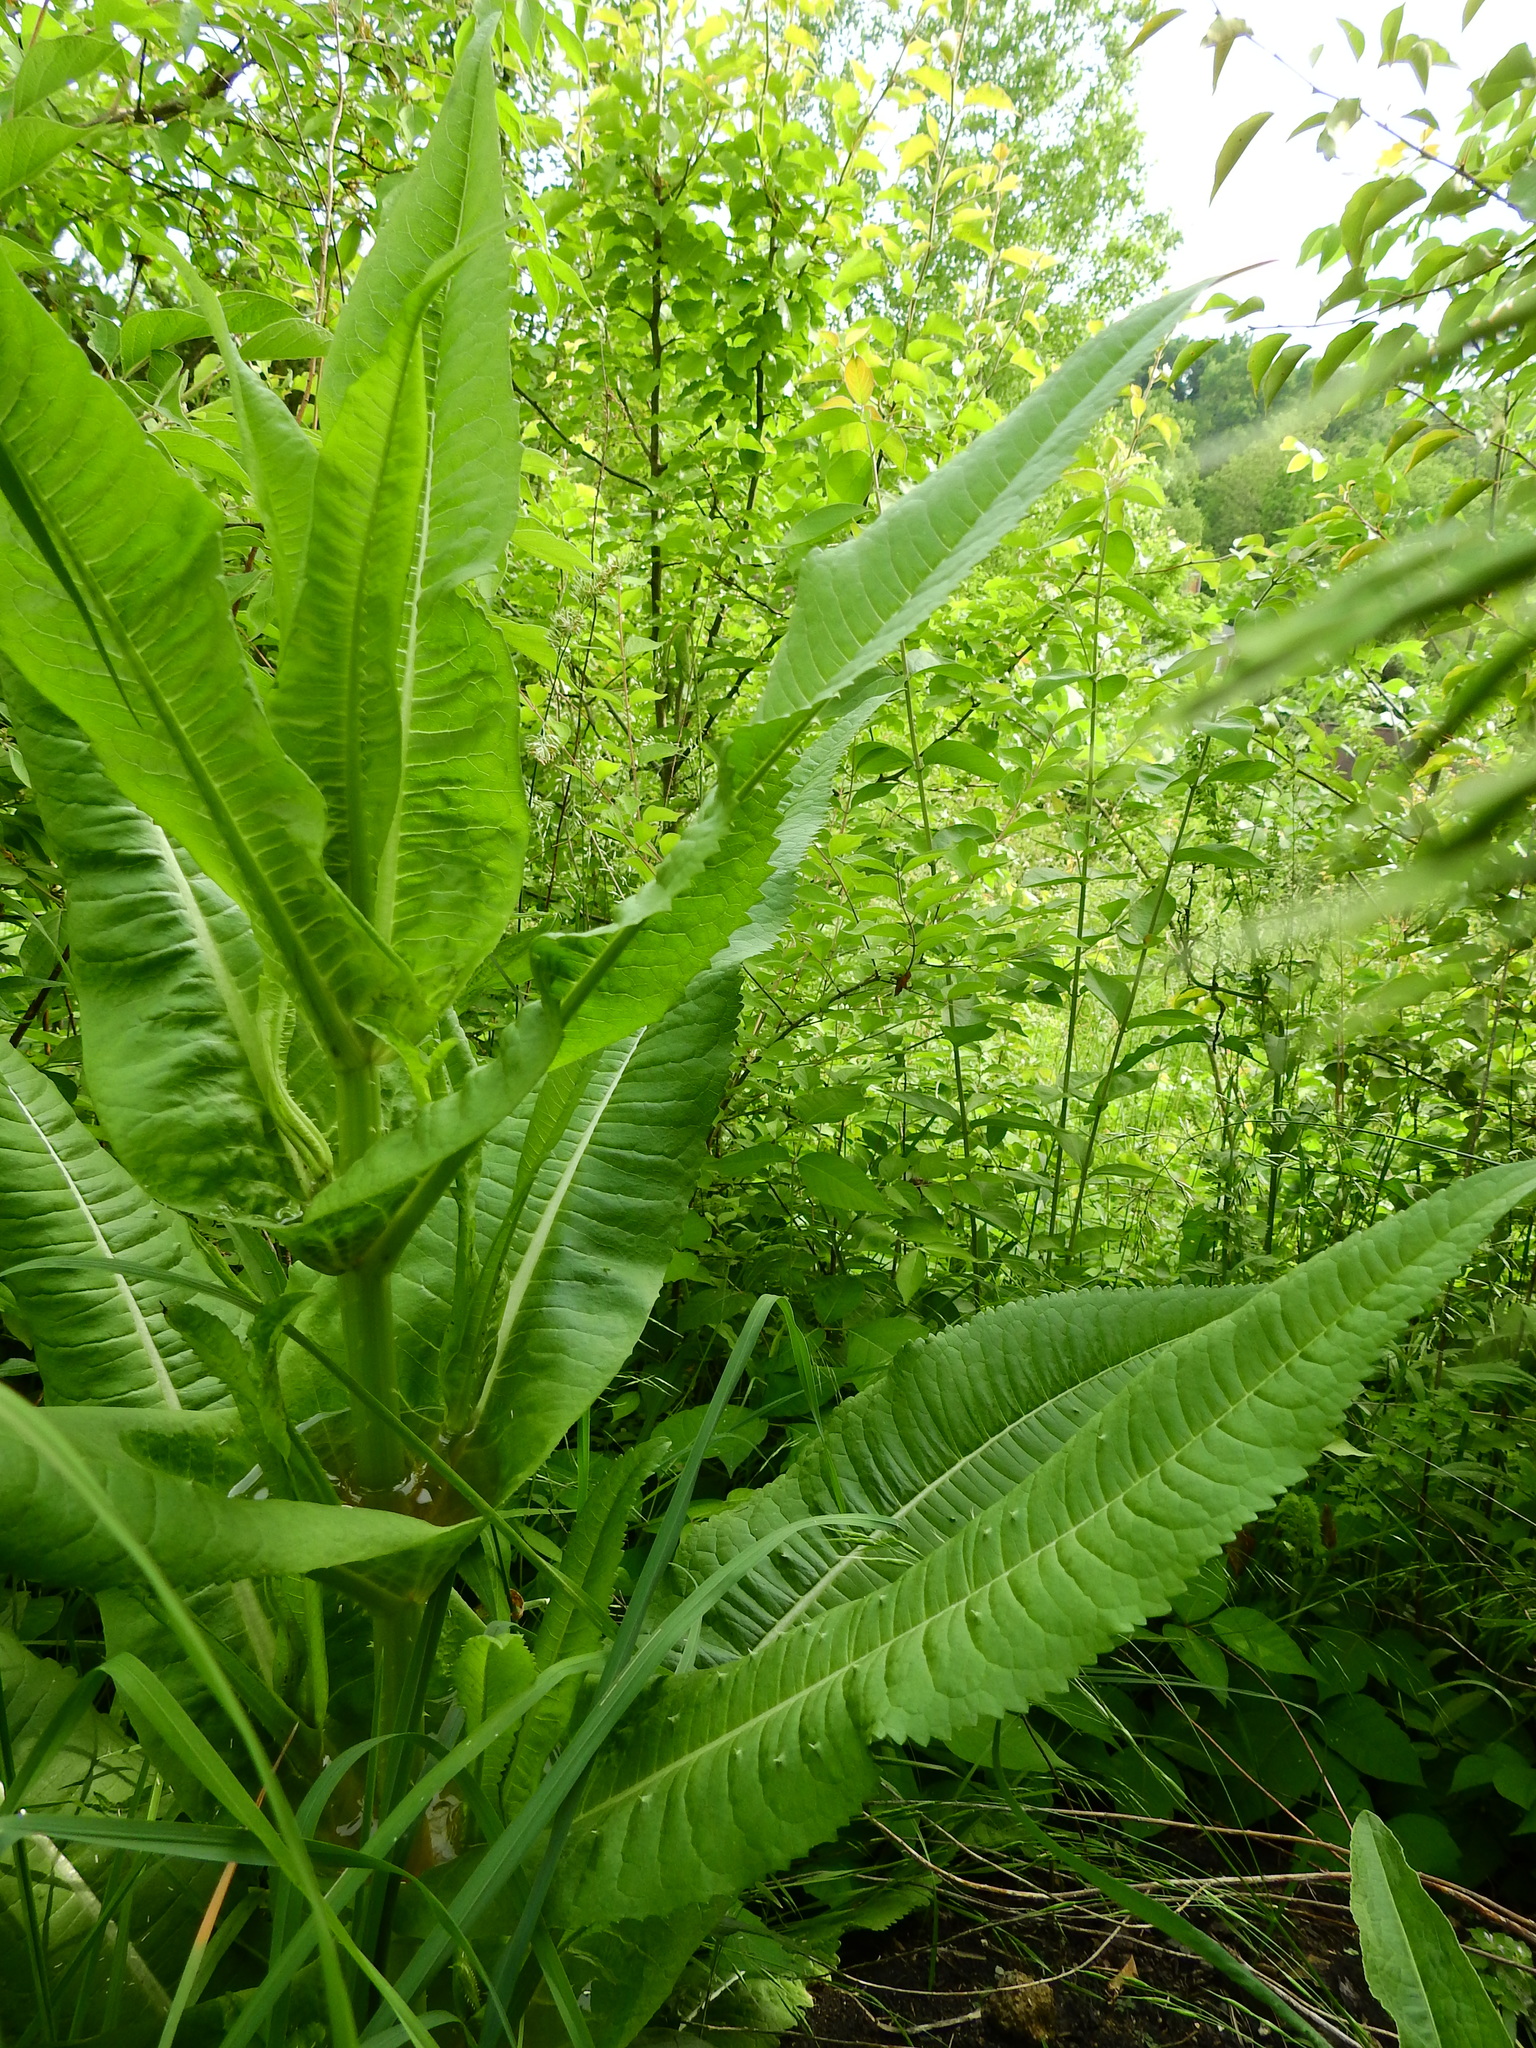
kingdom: Plantae
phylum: Tracheophyta
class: Magnoliopsida
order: Dipsacales
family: Caprifoliaceae
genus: Dipsacus
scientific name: Dipsacus fullonum
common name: Teasel
